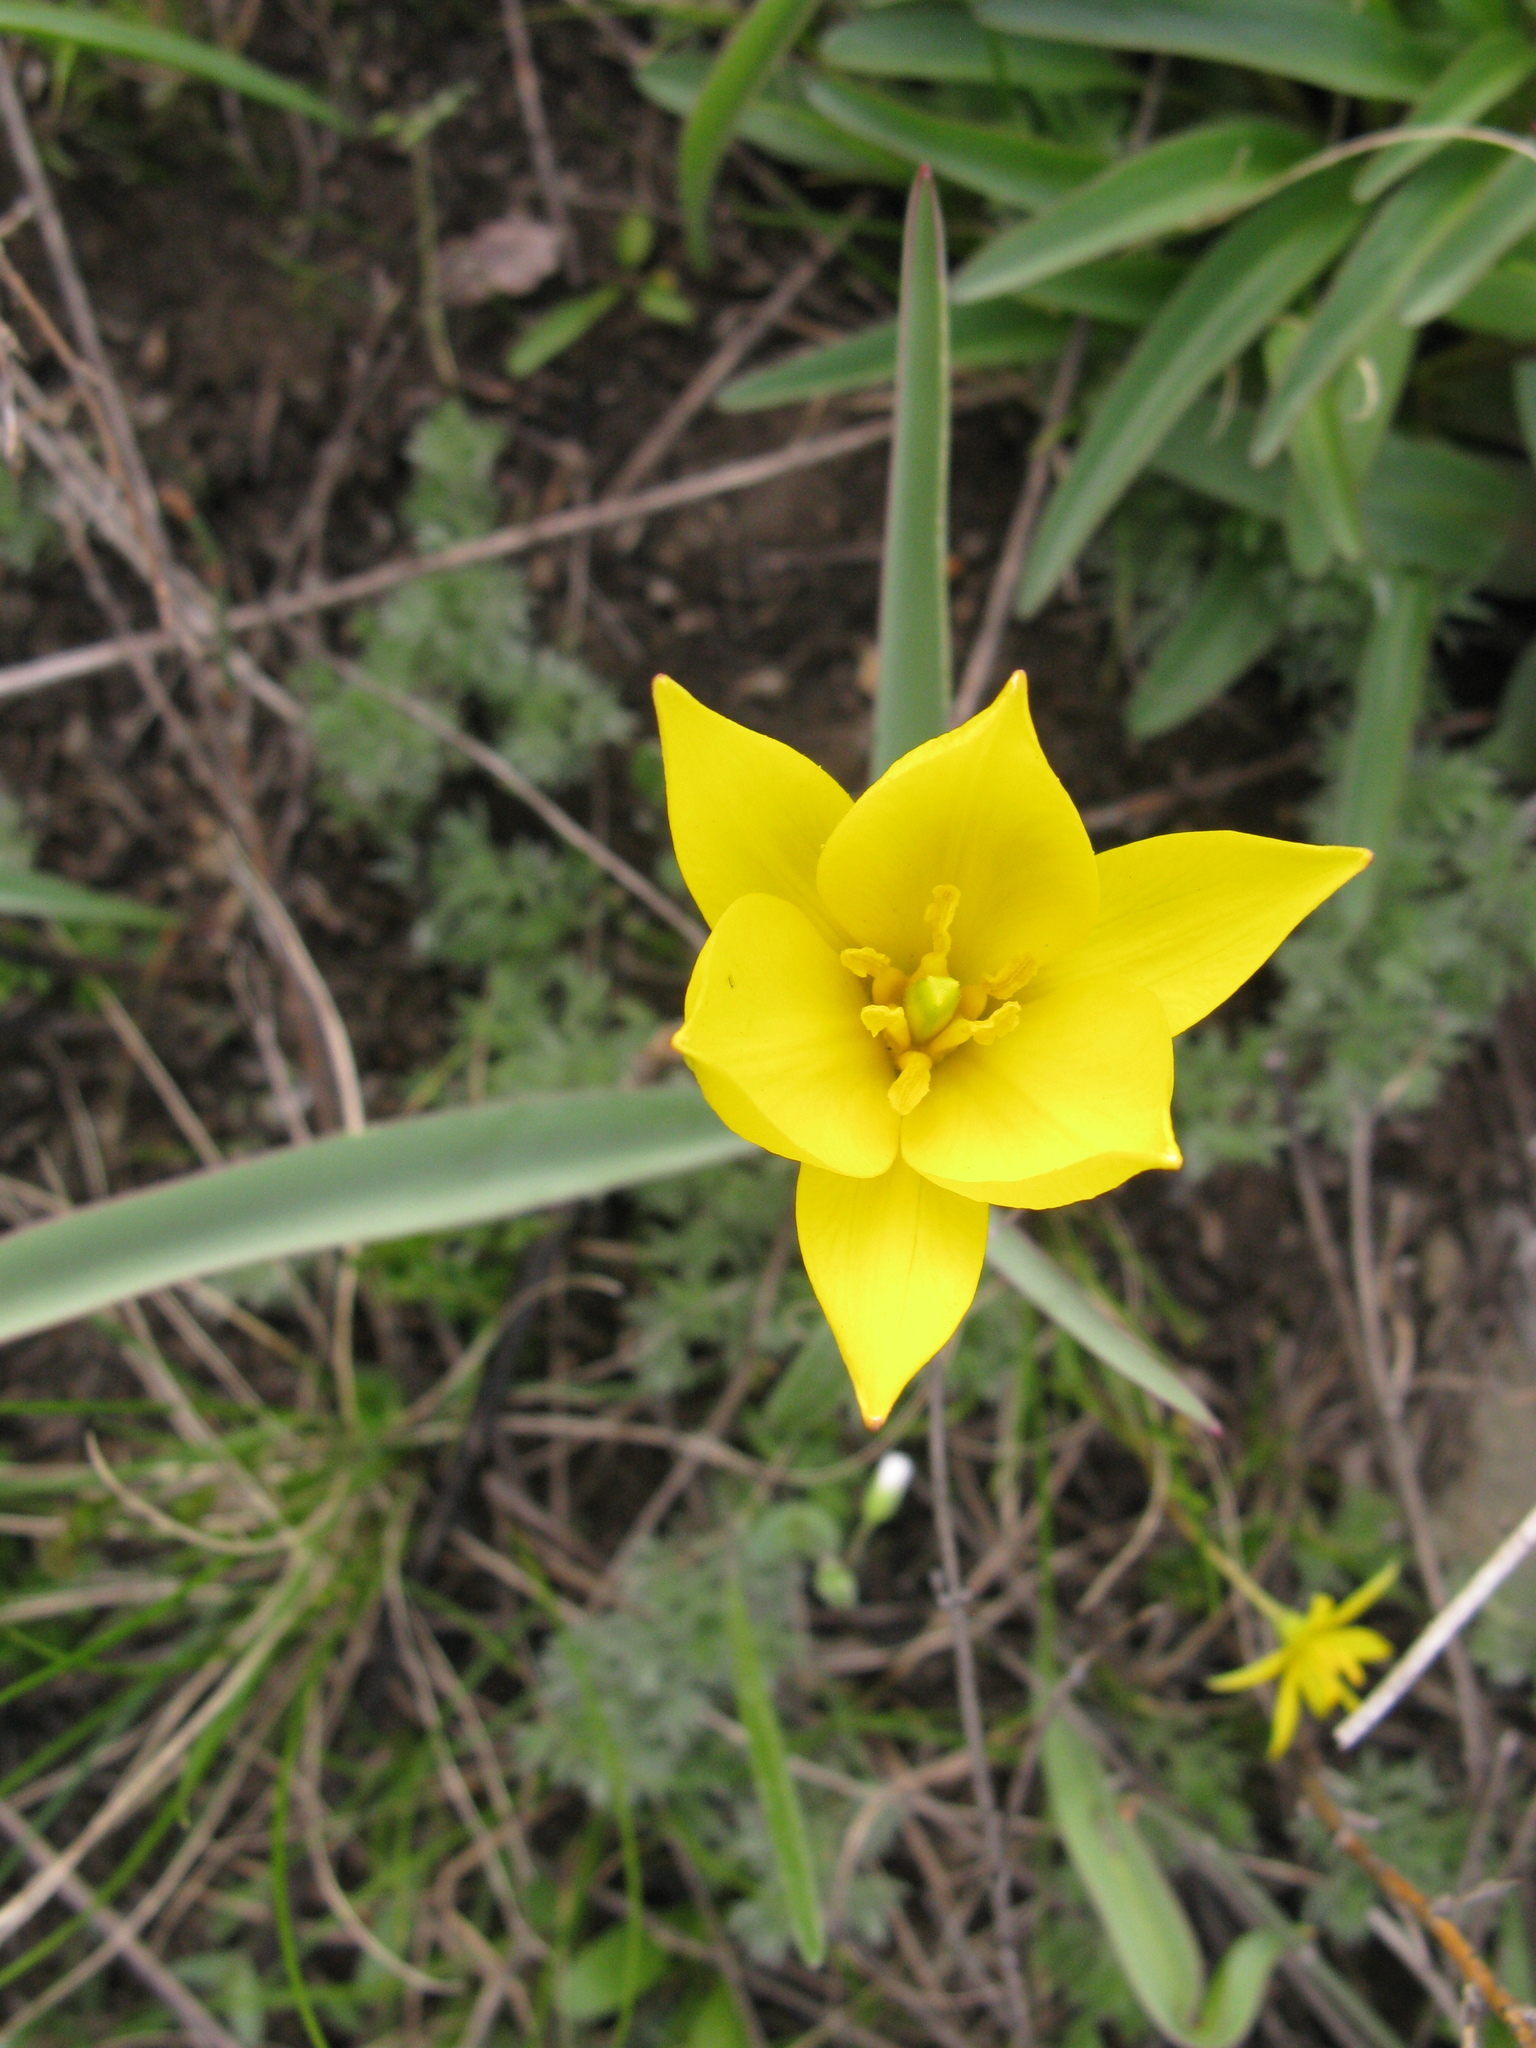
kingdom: Plantae
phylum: Tracheophyta
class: Liliopsida
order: Liliales
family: Liliaceae
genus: Tulipa
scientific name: Tulipa sylvestris
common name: Wild tulip
